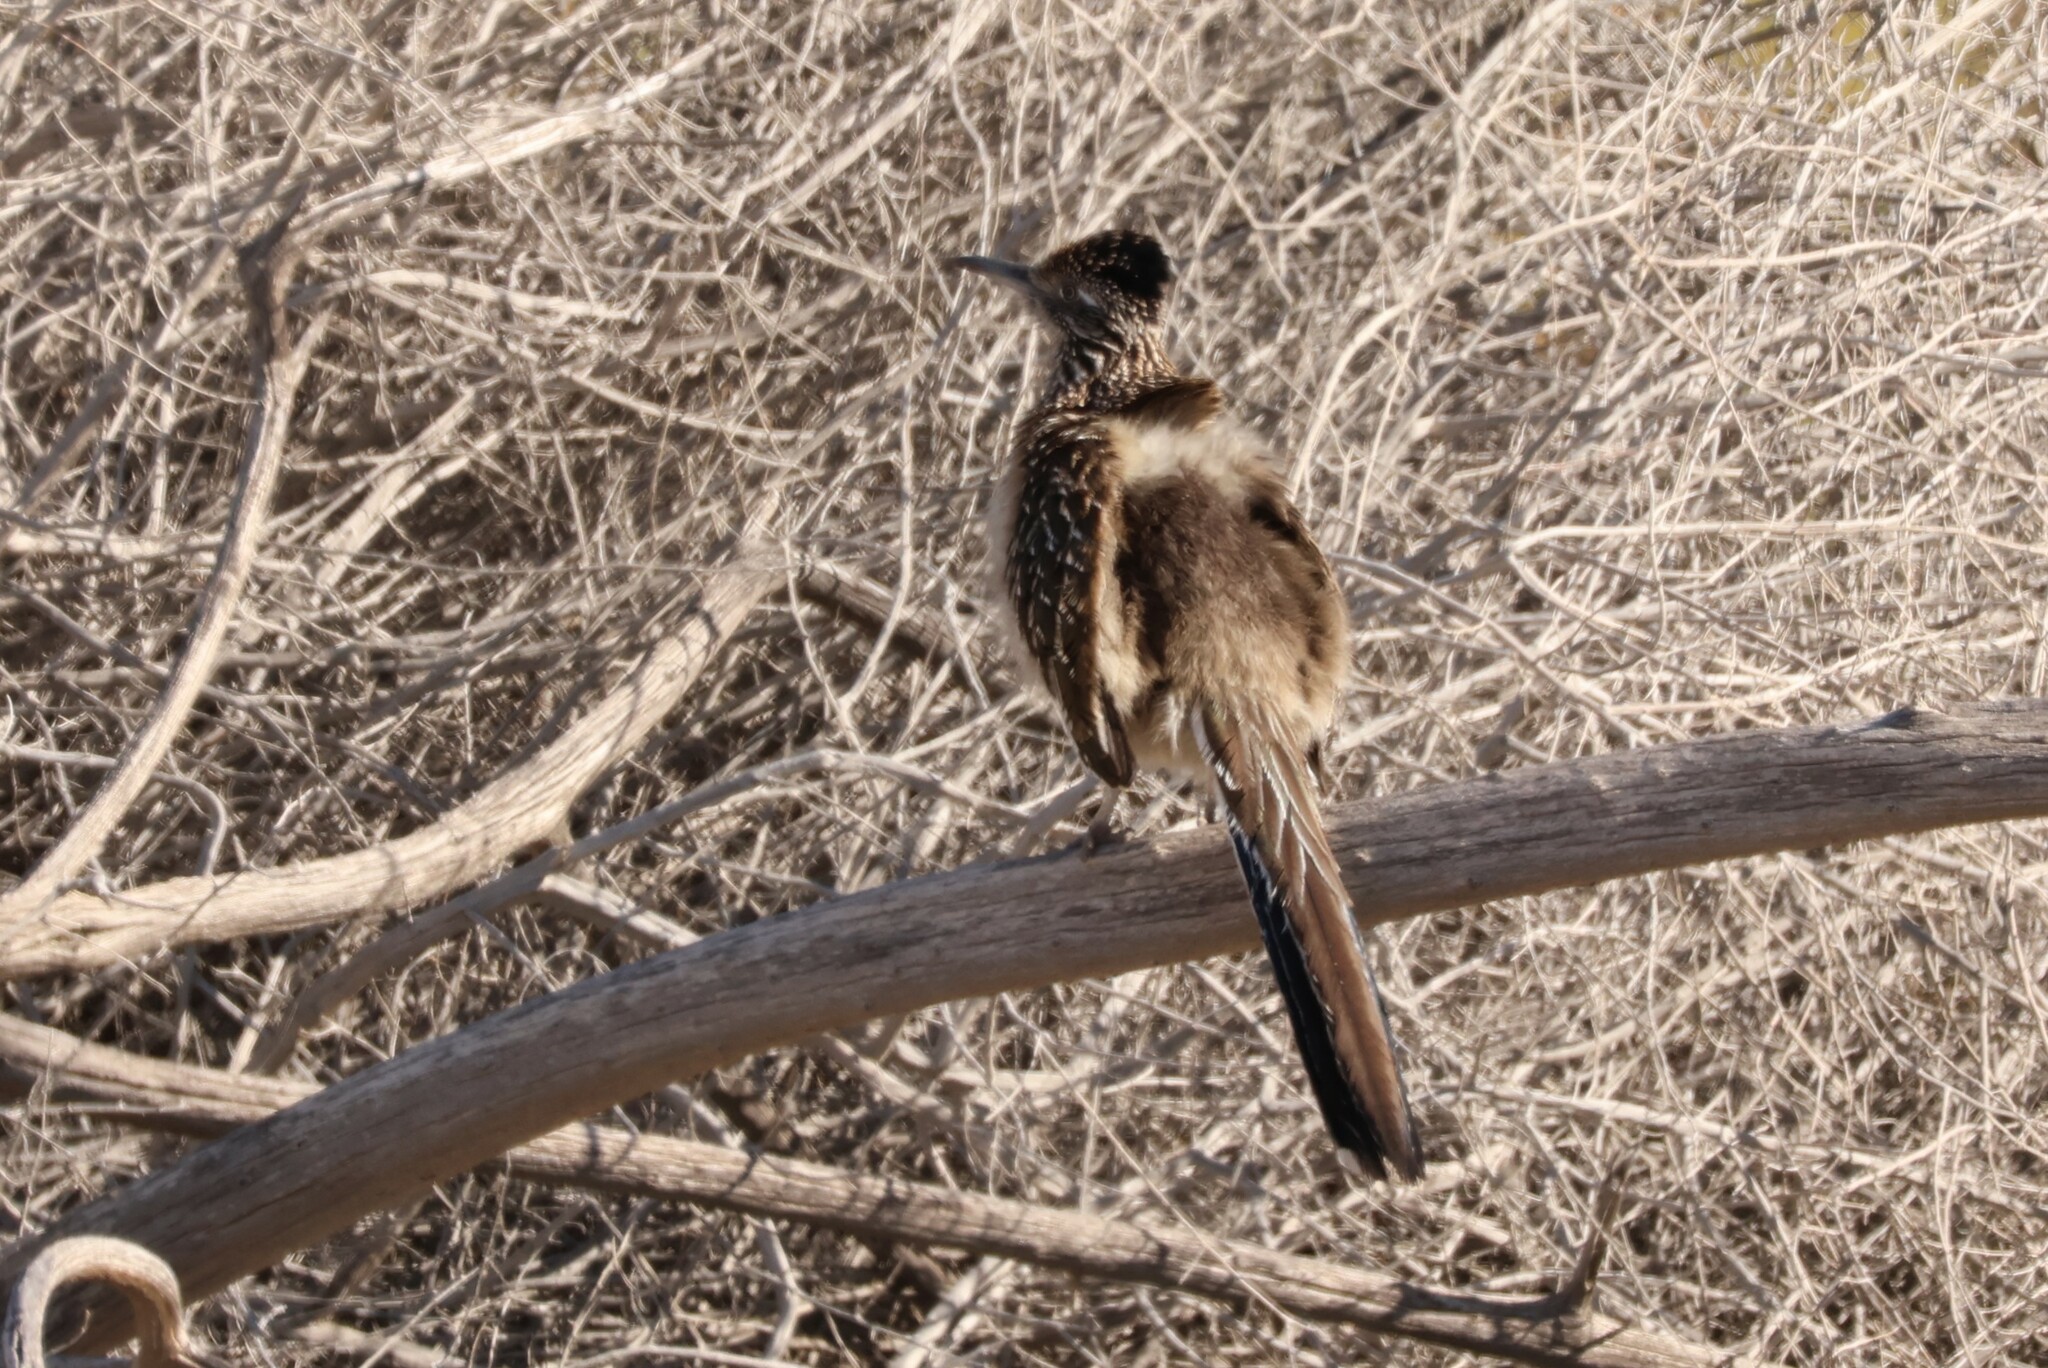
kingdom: Animalia
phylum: Chordata
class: Aves
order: Cuculiformes
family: Cuculidae
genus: Geococcyx
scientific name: Geococcyx californianus
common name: Greater roadrunner
